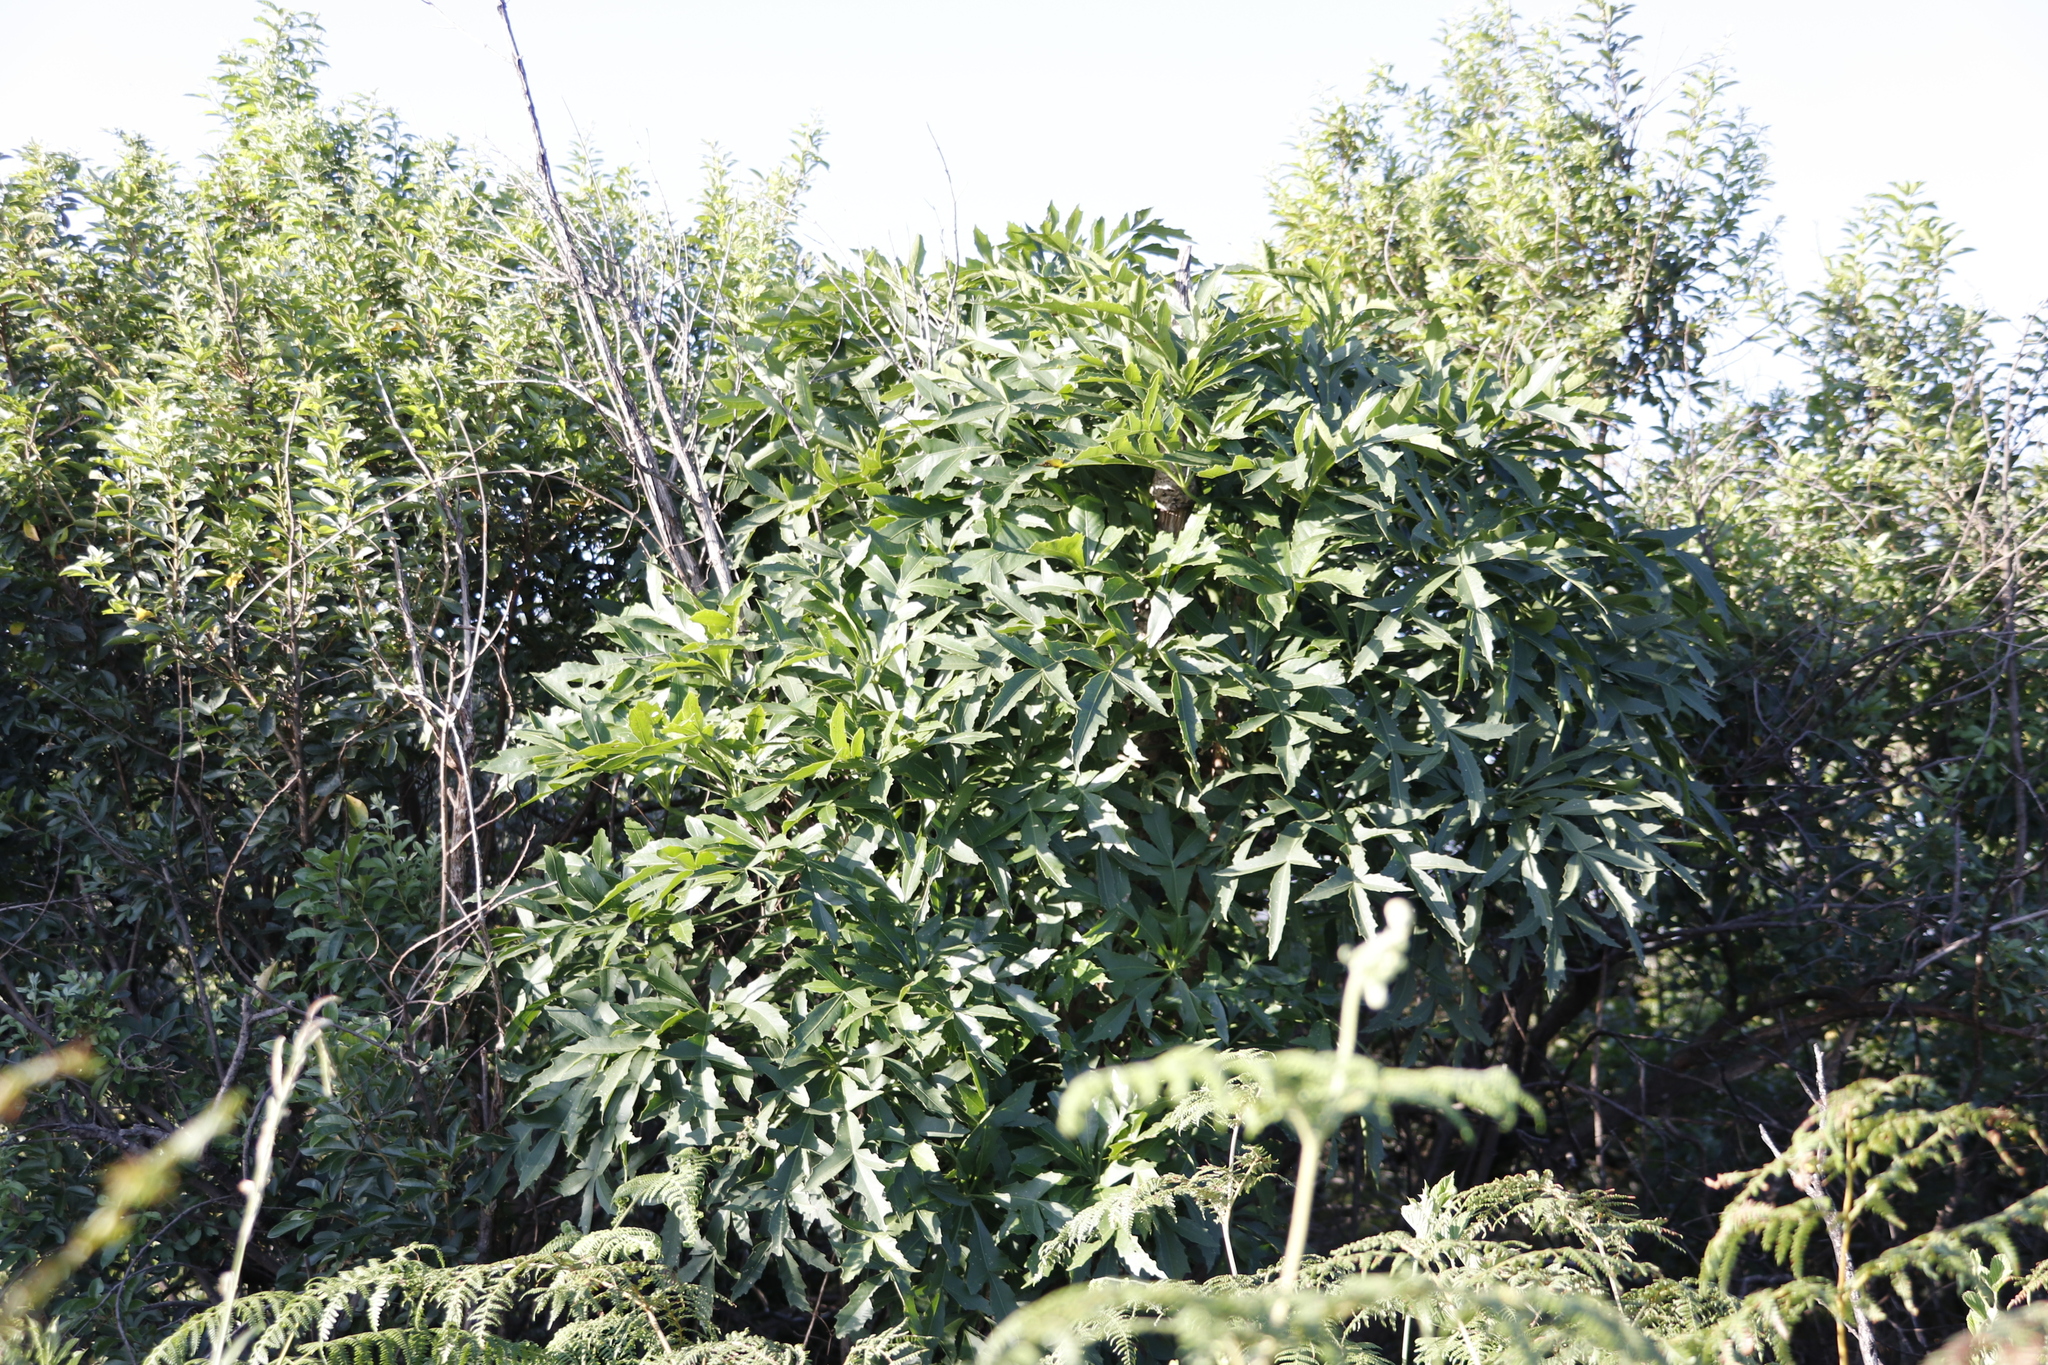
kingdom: Plantae
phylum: Tracheophyta
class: Magnoliopsida
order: Apiales
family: Araliaceae
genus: Cussonia
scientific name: Cussonia spicata
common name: Common cabbagetree
